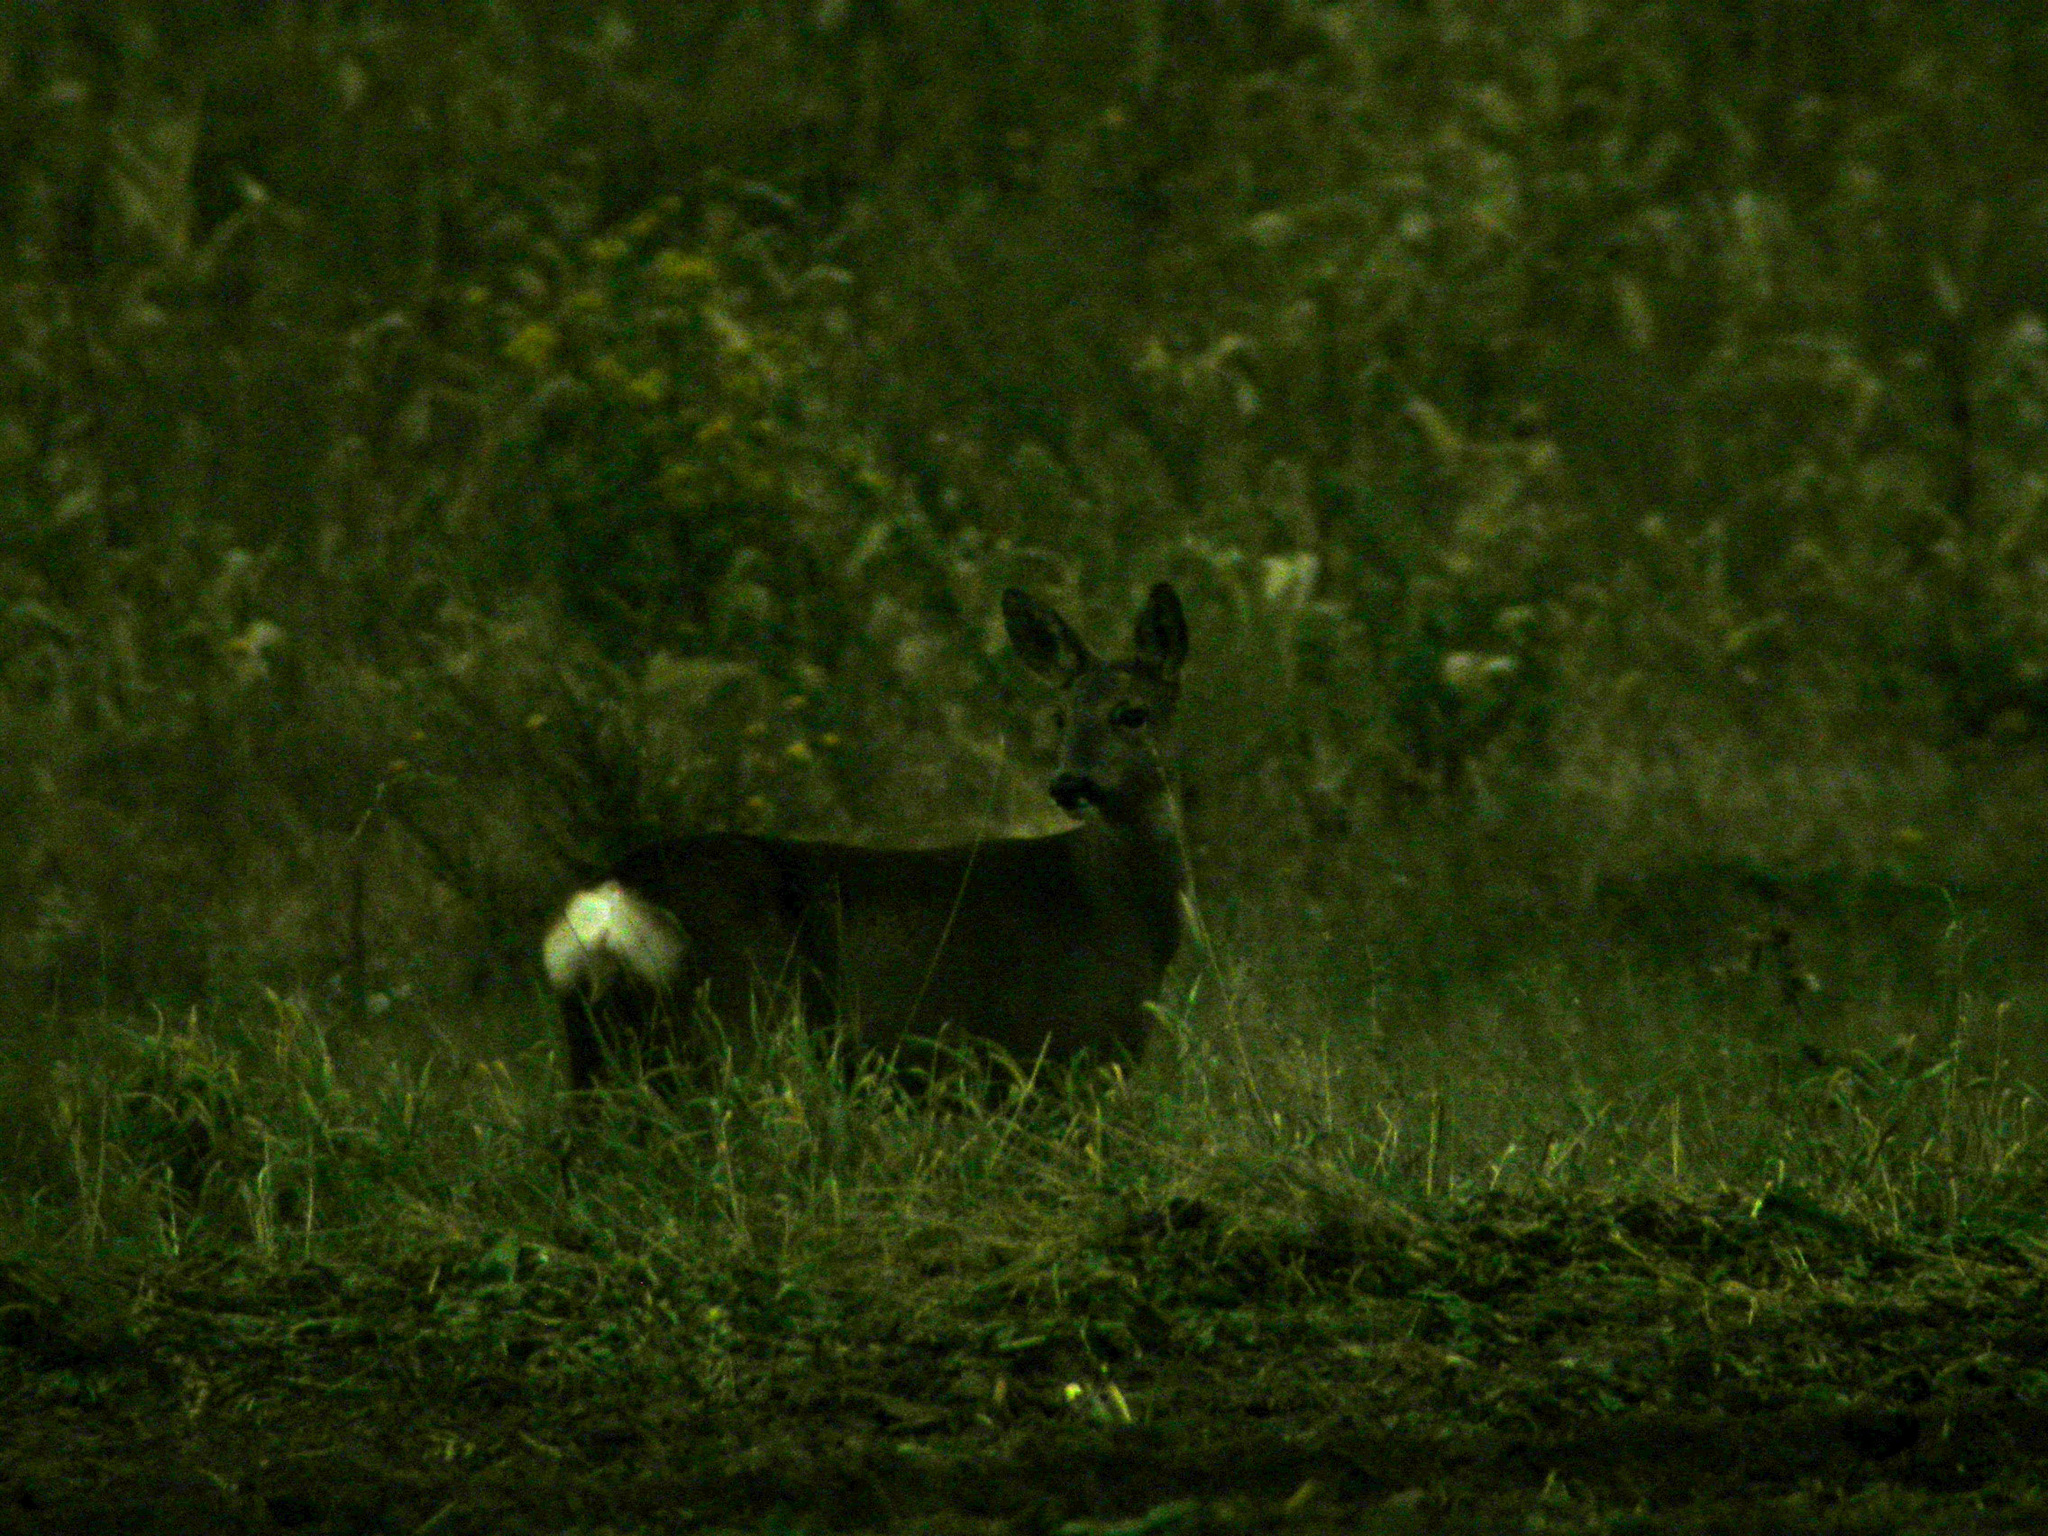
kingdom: Animalia
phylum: Chordata
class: Mammalia
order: Artiodactyla
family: Cervidae
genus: Capreolus
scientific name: Capreolus capreolus
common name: Western roe deer
